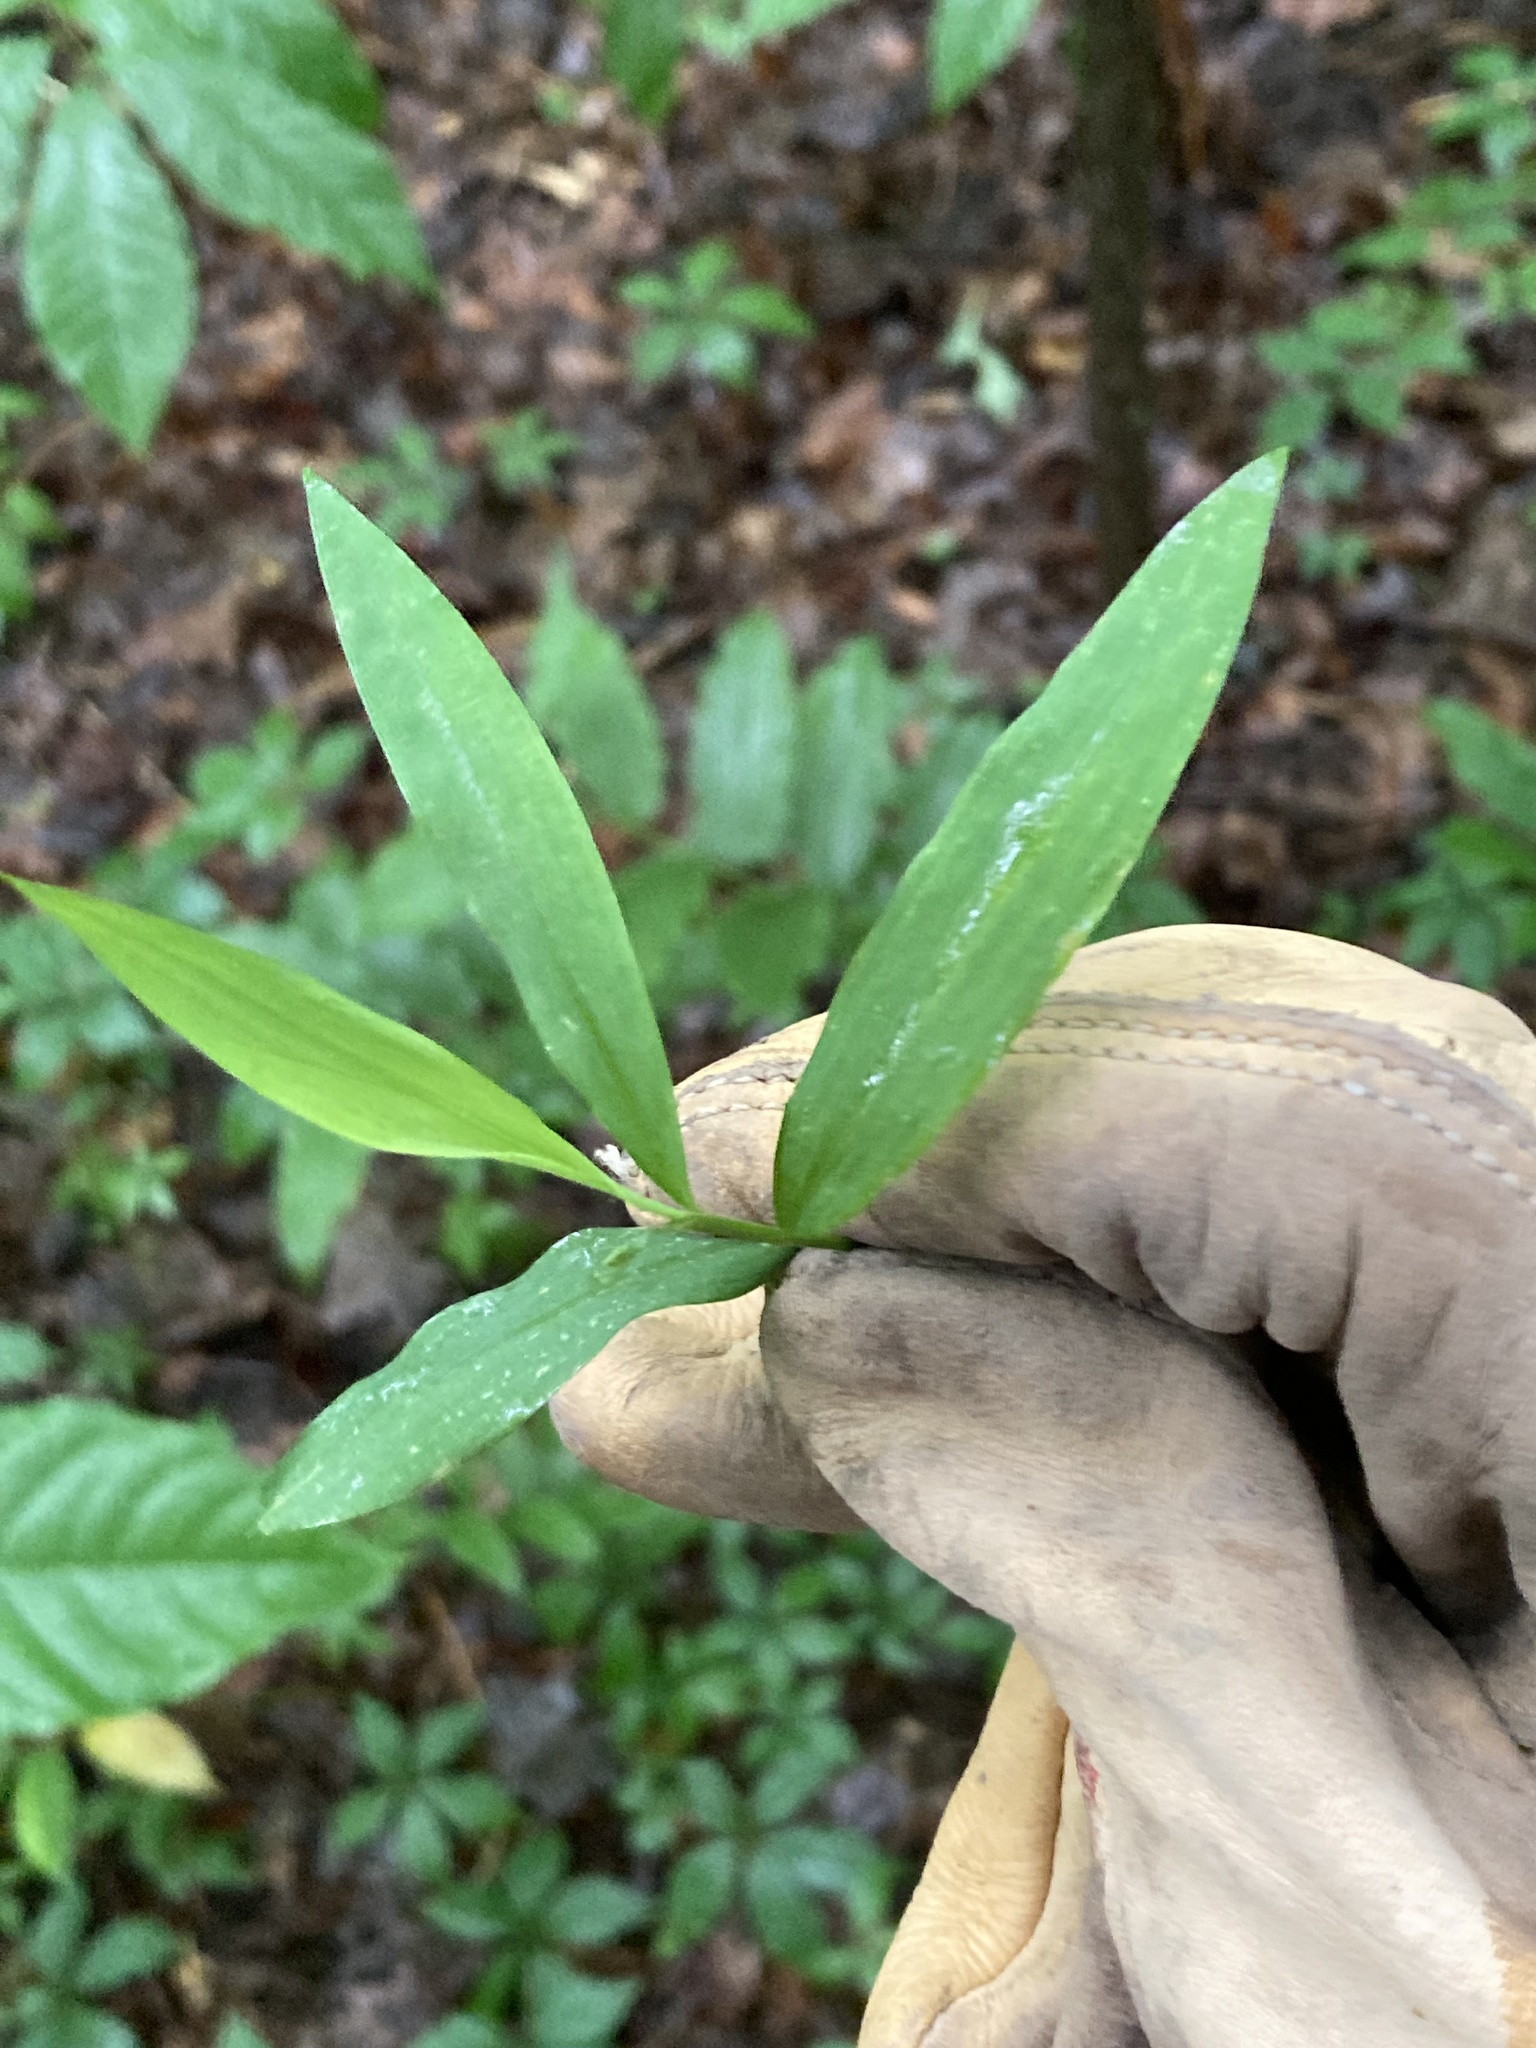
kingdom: Plantae
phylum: Tracheophyta
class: Liliopsida
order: Poales
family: Poaceae
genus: Microstegium
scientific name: Microstegium vimineum
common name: Japanese stiltgrass
